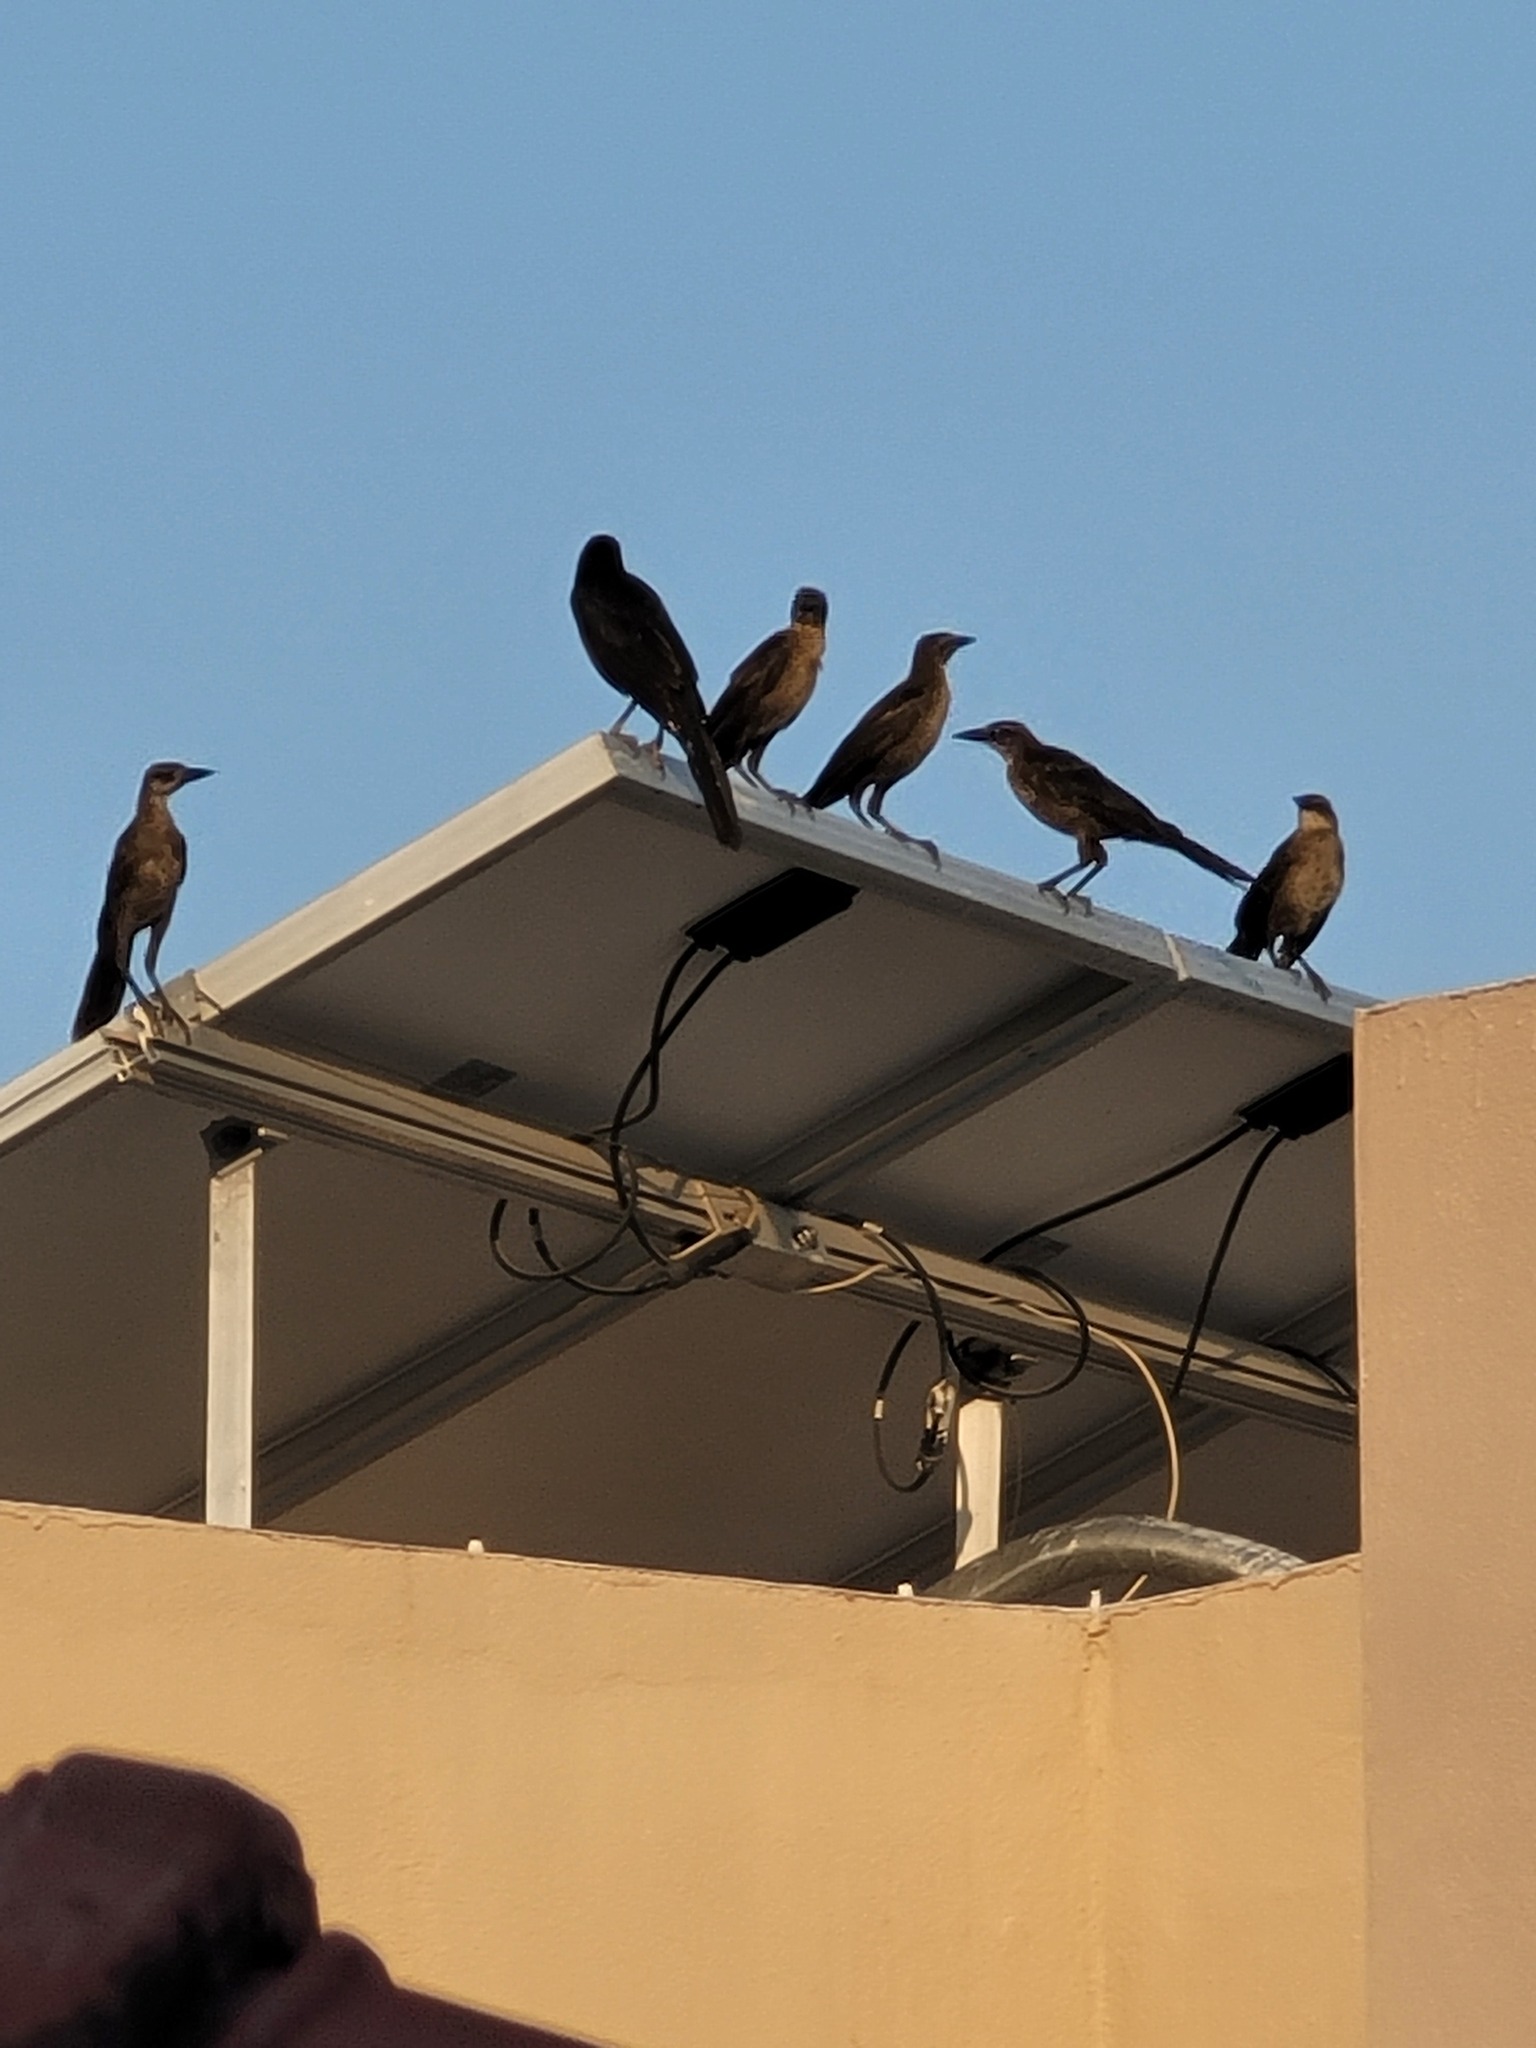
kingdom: Animalia
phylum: Chordata
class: Aves
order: Passeriformes
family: Icteridae
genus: Quiscalus
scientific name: Quiscalus mexicanus
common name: Great-tailed grackle
